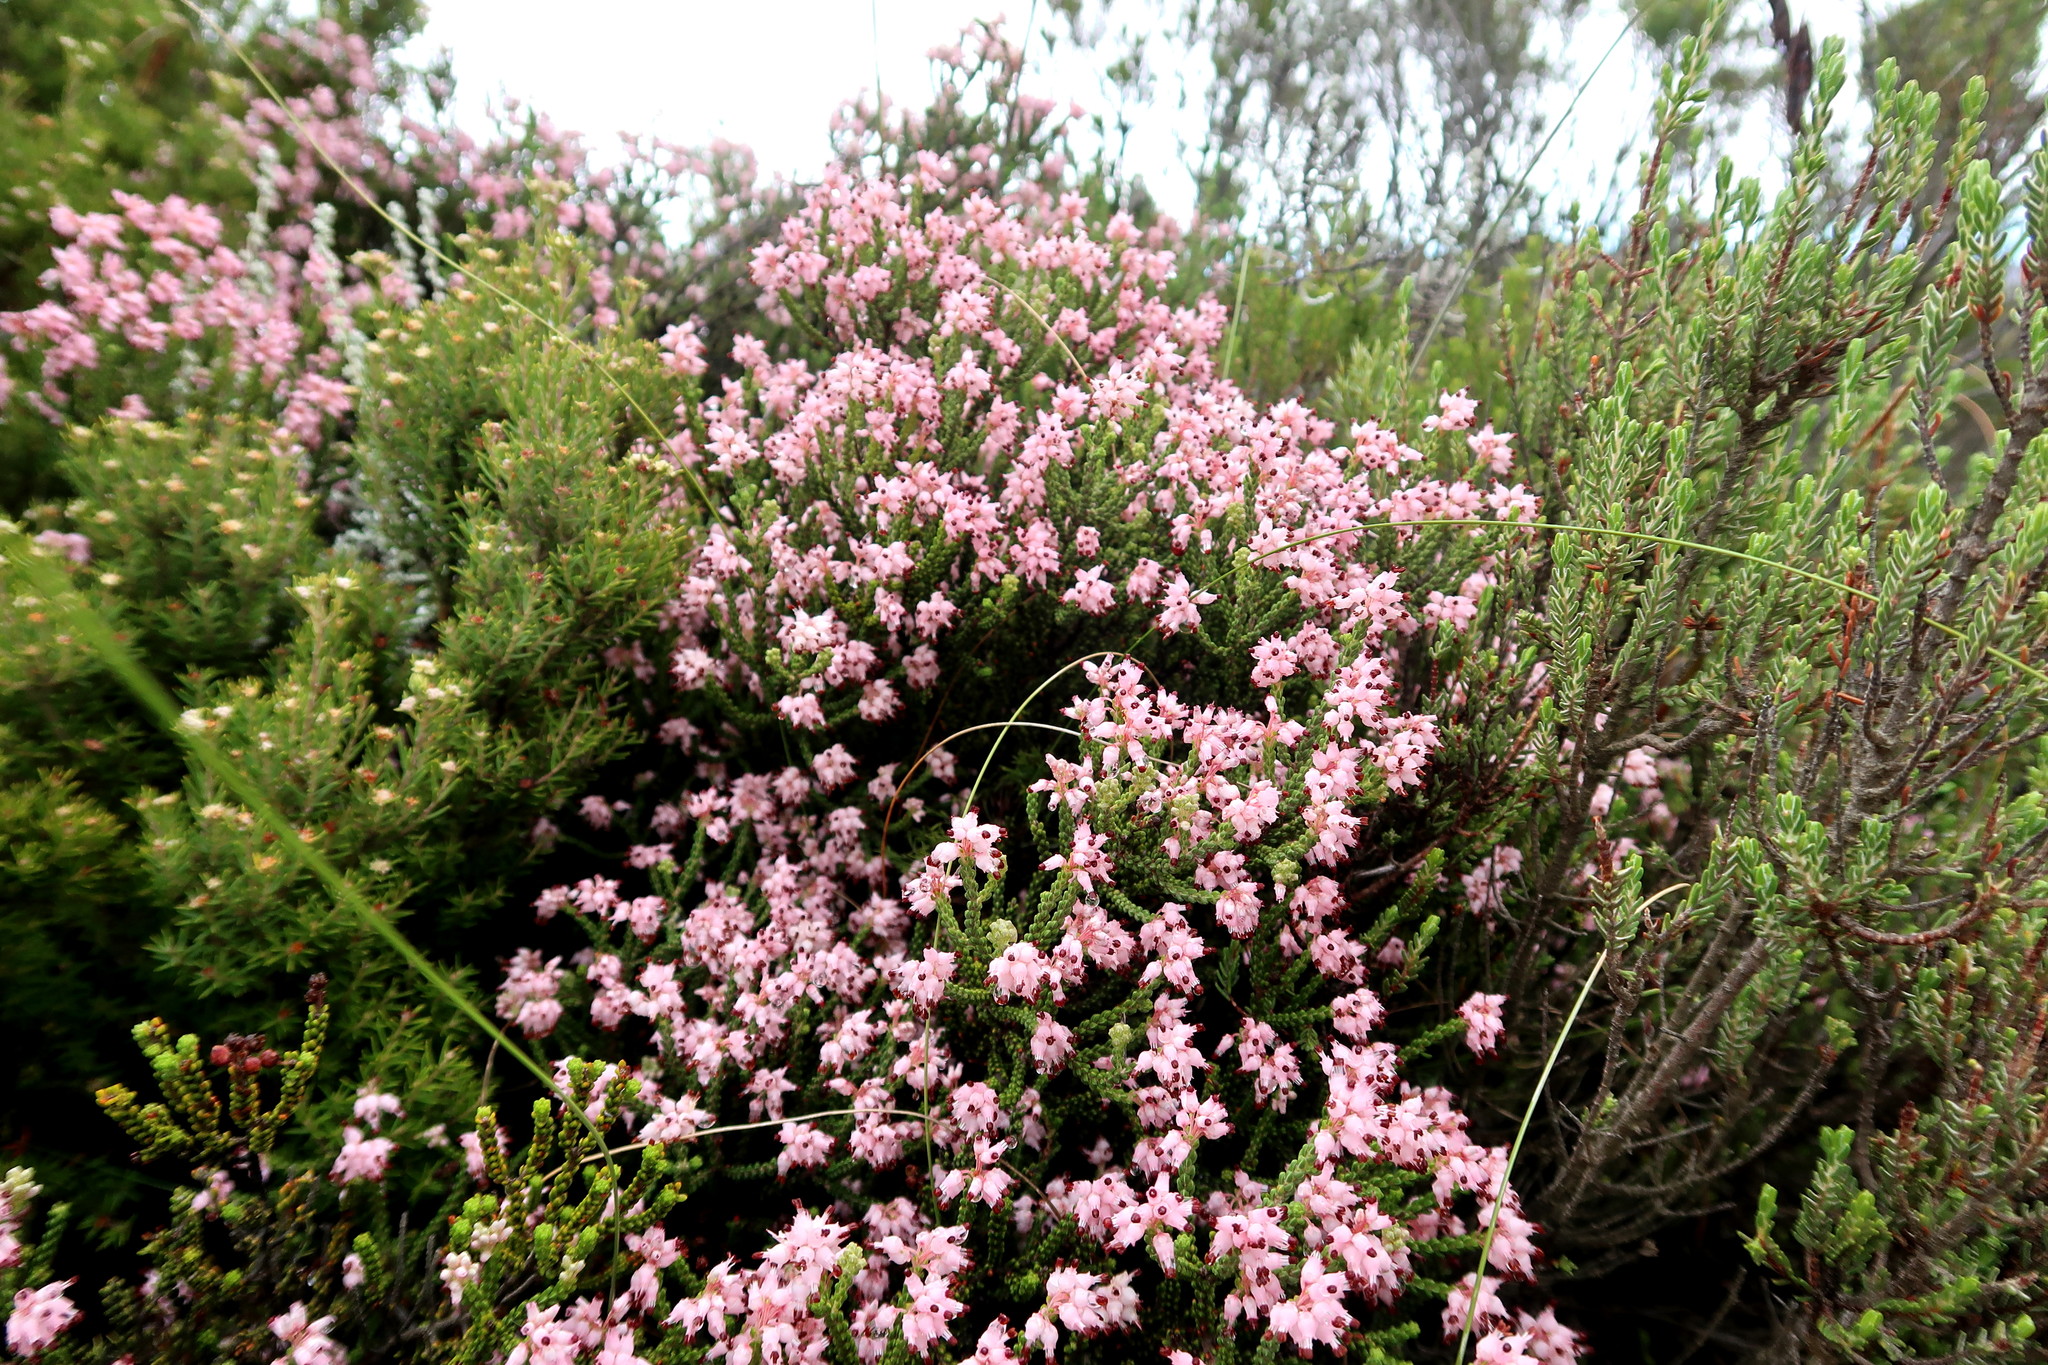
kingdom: Plantae
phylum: Tracheophyta
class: Magnoliopsida
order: Ericales
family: Ericaceae
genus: Erica
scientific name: Erica petraea
